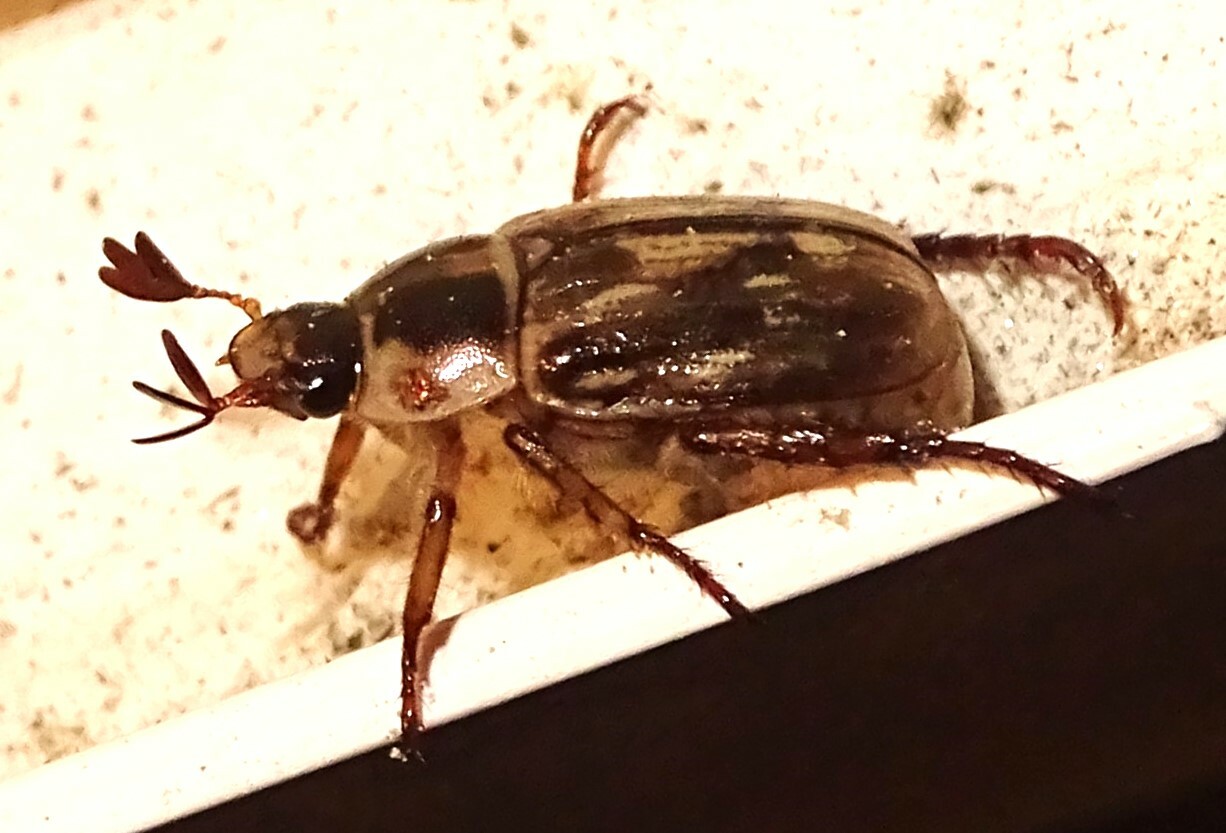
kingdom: Animalia
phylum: Arthropoda
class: Insecta
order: Coleoptera
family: Scarabaeidae
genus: Exomala
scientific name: Exomala orientalis
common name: Oriental beetle
